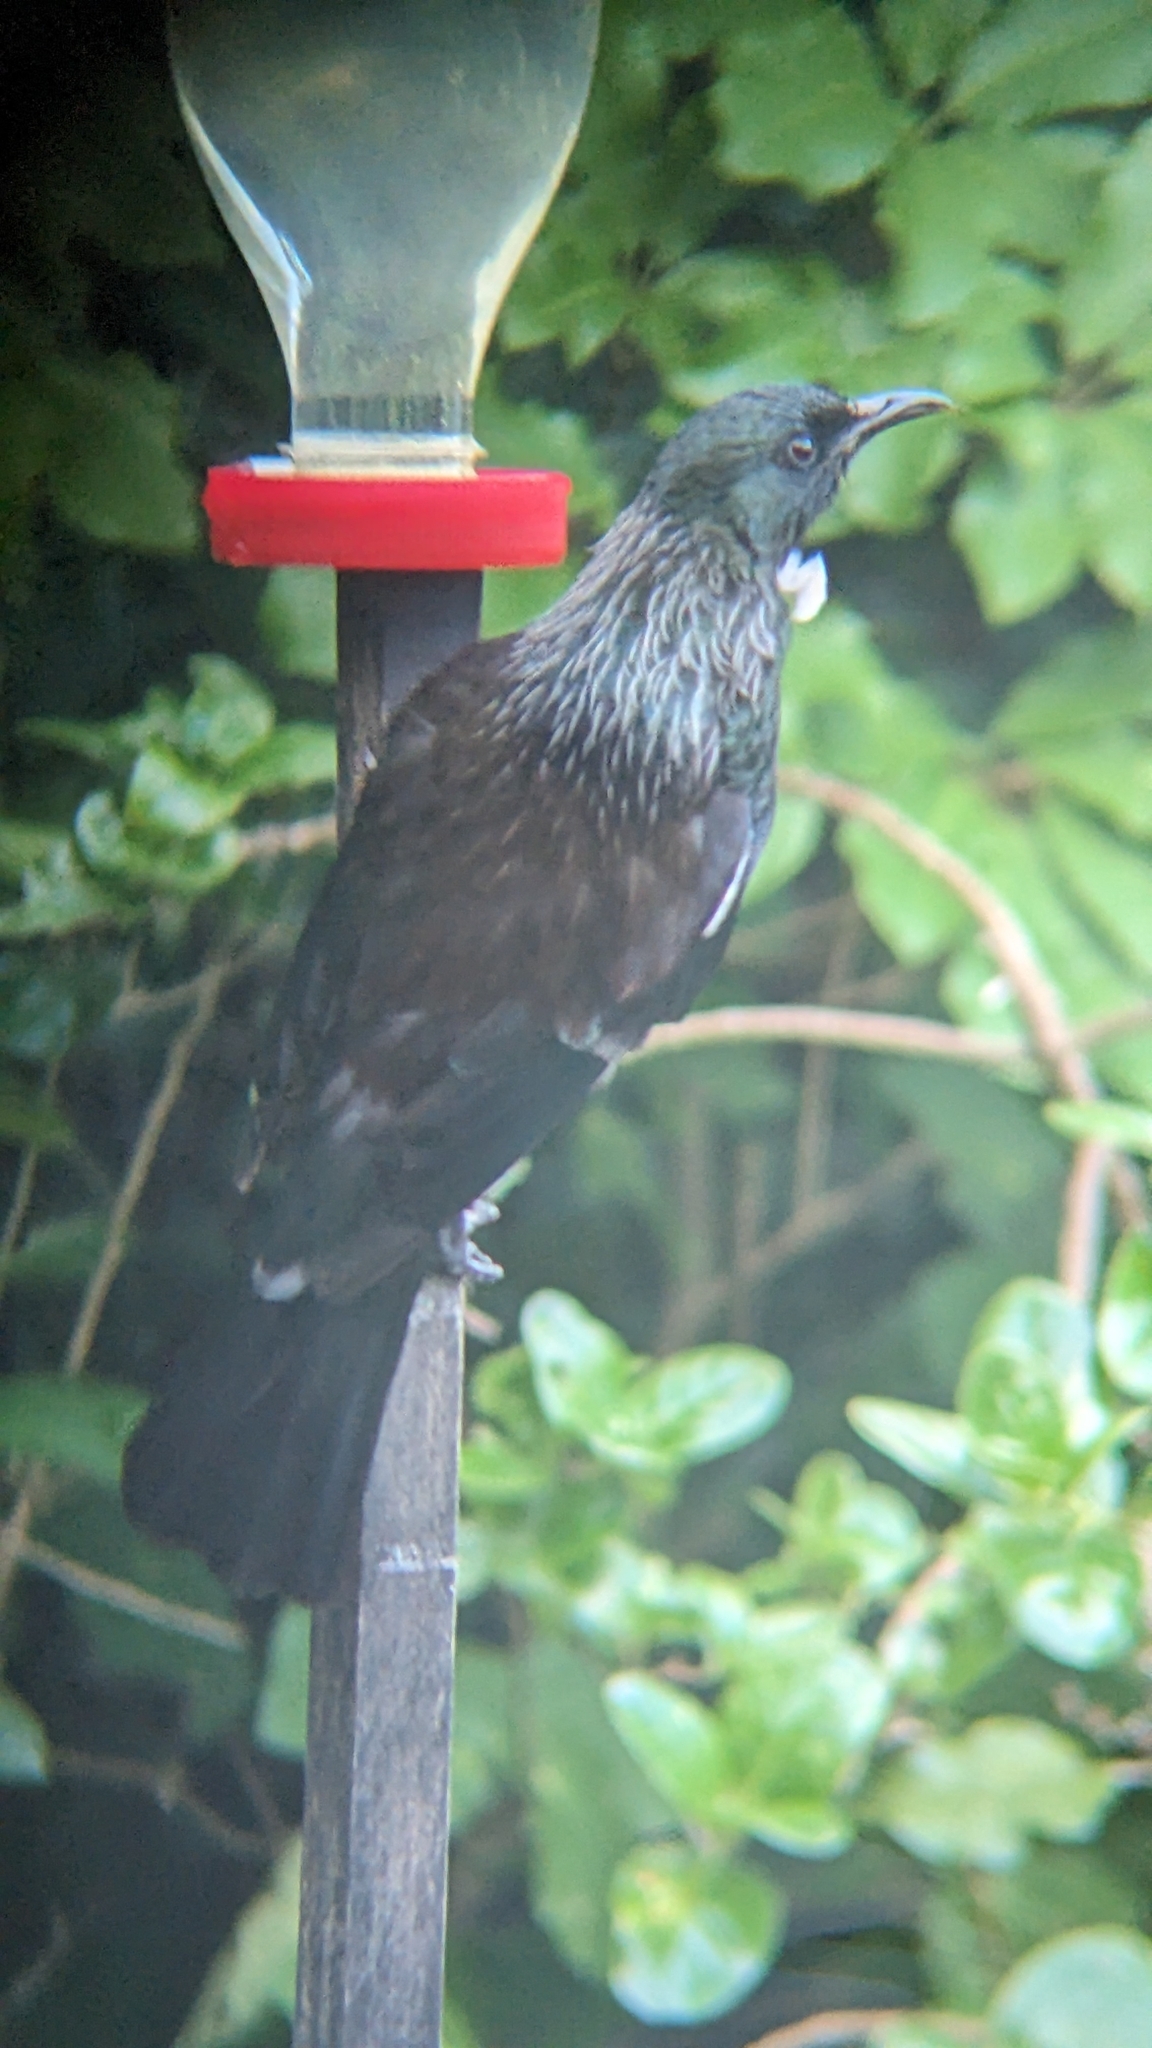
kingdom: Animalia
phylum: Chordata
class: Aves
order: Passeriformes
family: Meliphagidae
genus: Prosthemadera
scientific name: Prosthemadera novaeseelandiae
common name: Tui
